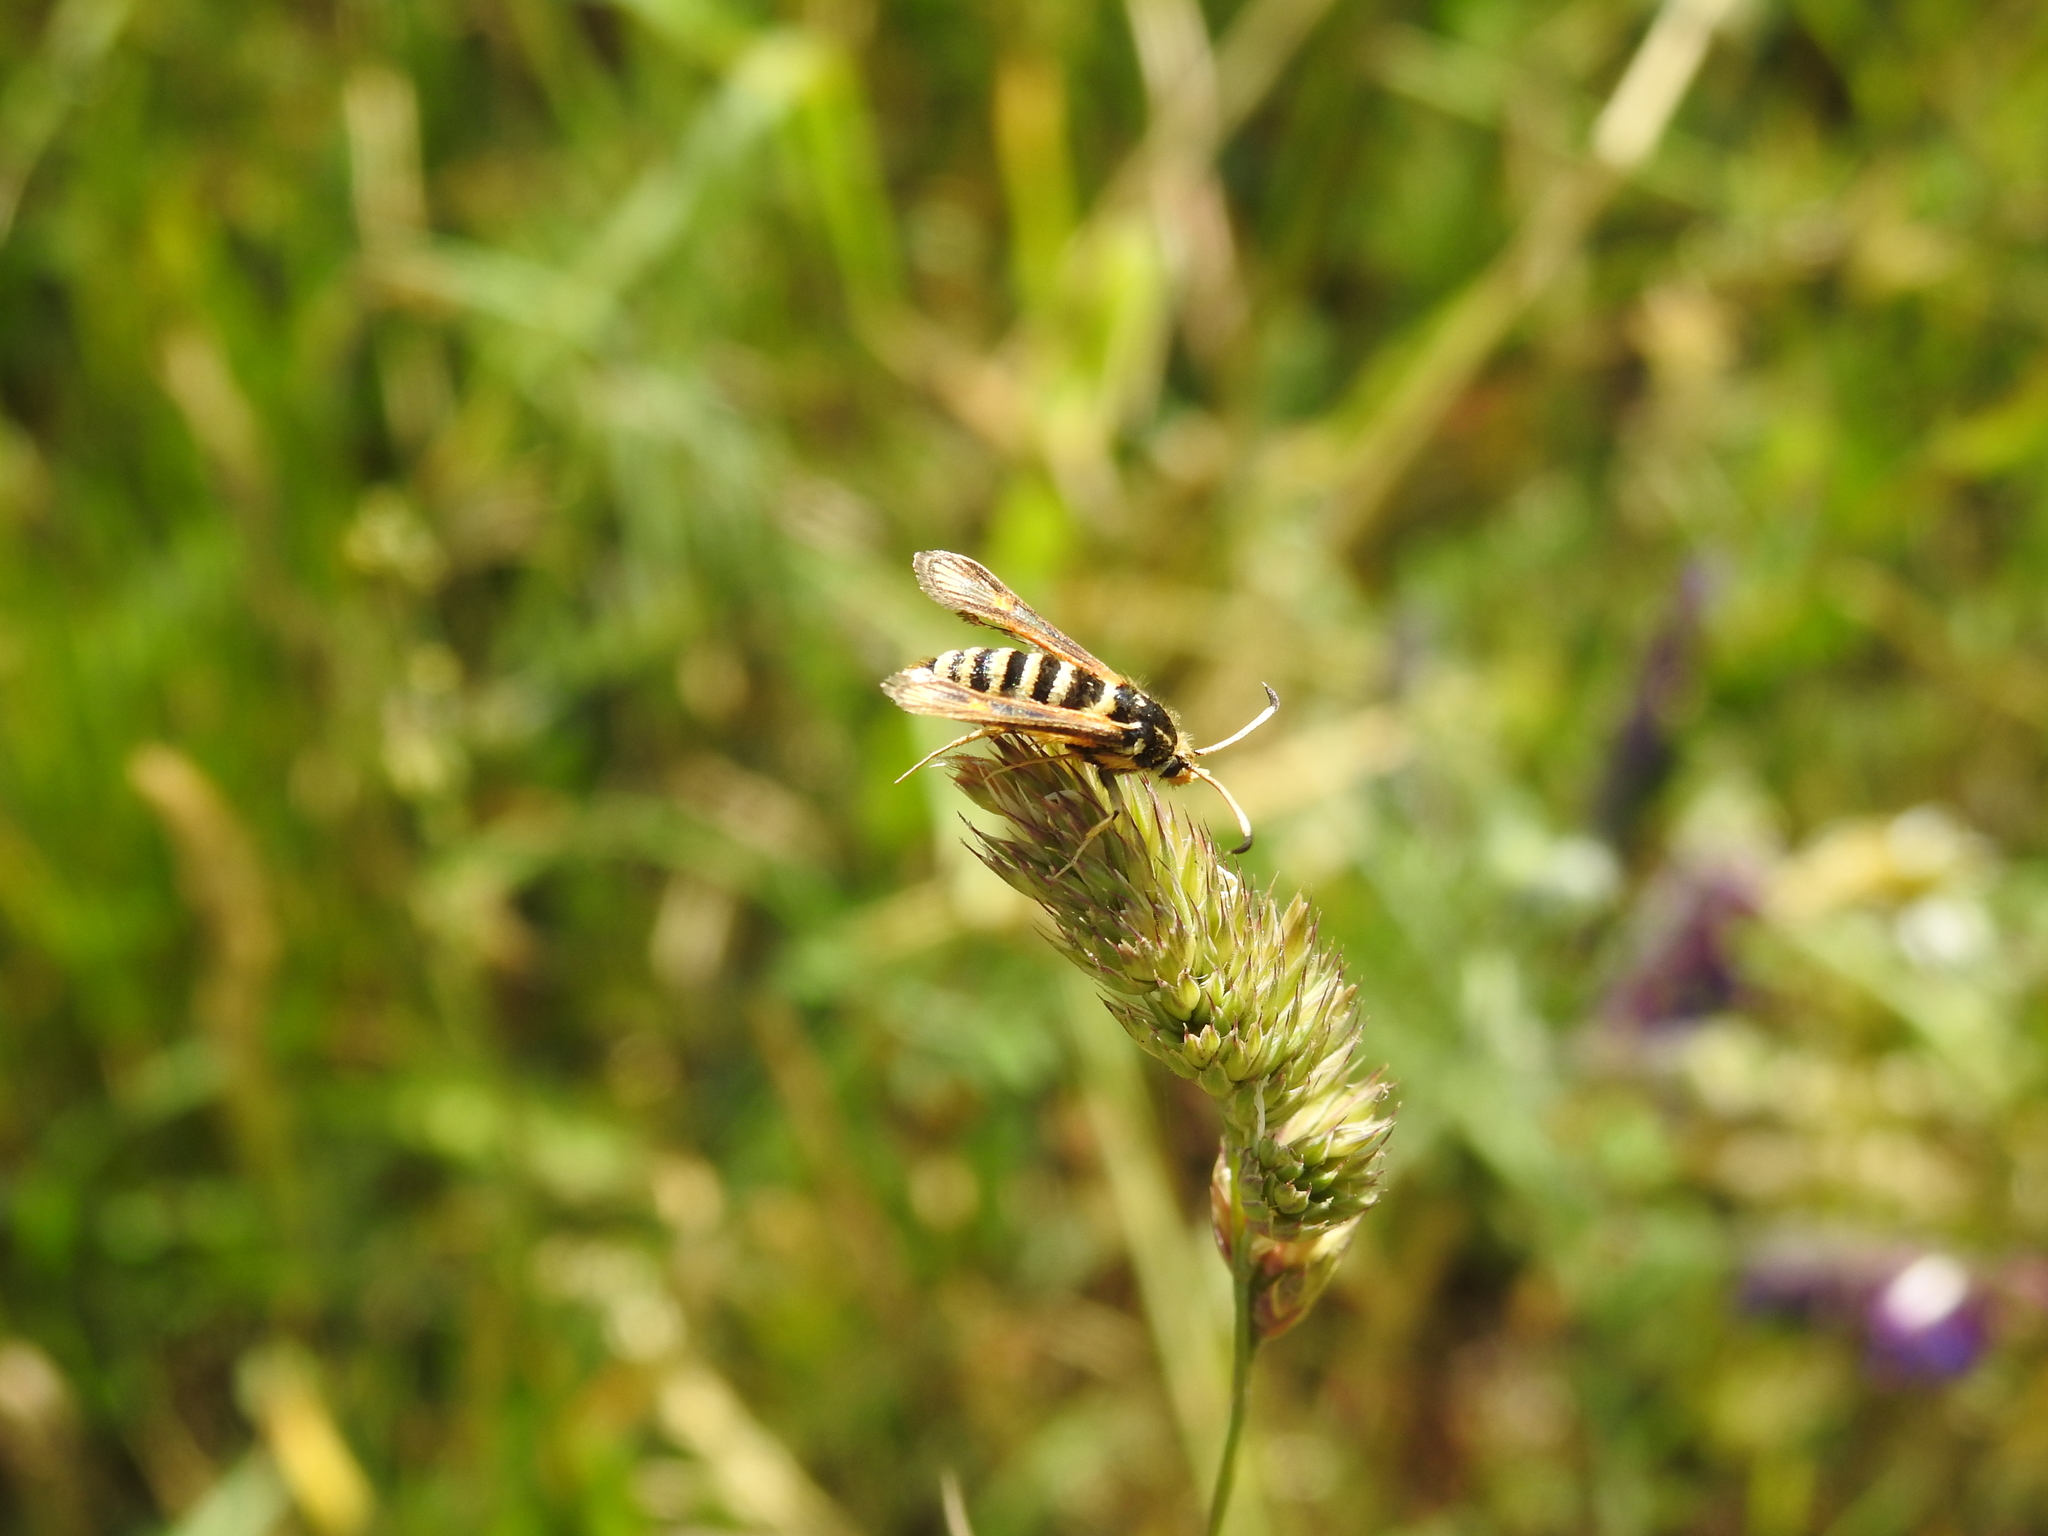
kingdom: Animalia
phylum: Arthropoda
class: Insecta
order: Lepidoptera
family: Sesiidae
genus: Bembecia
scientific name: Bembecia ichneumoniformis
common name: Six-belted clearwing
